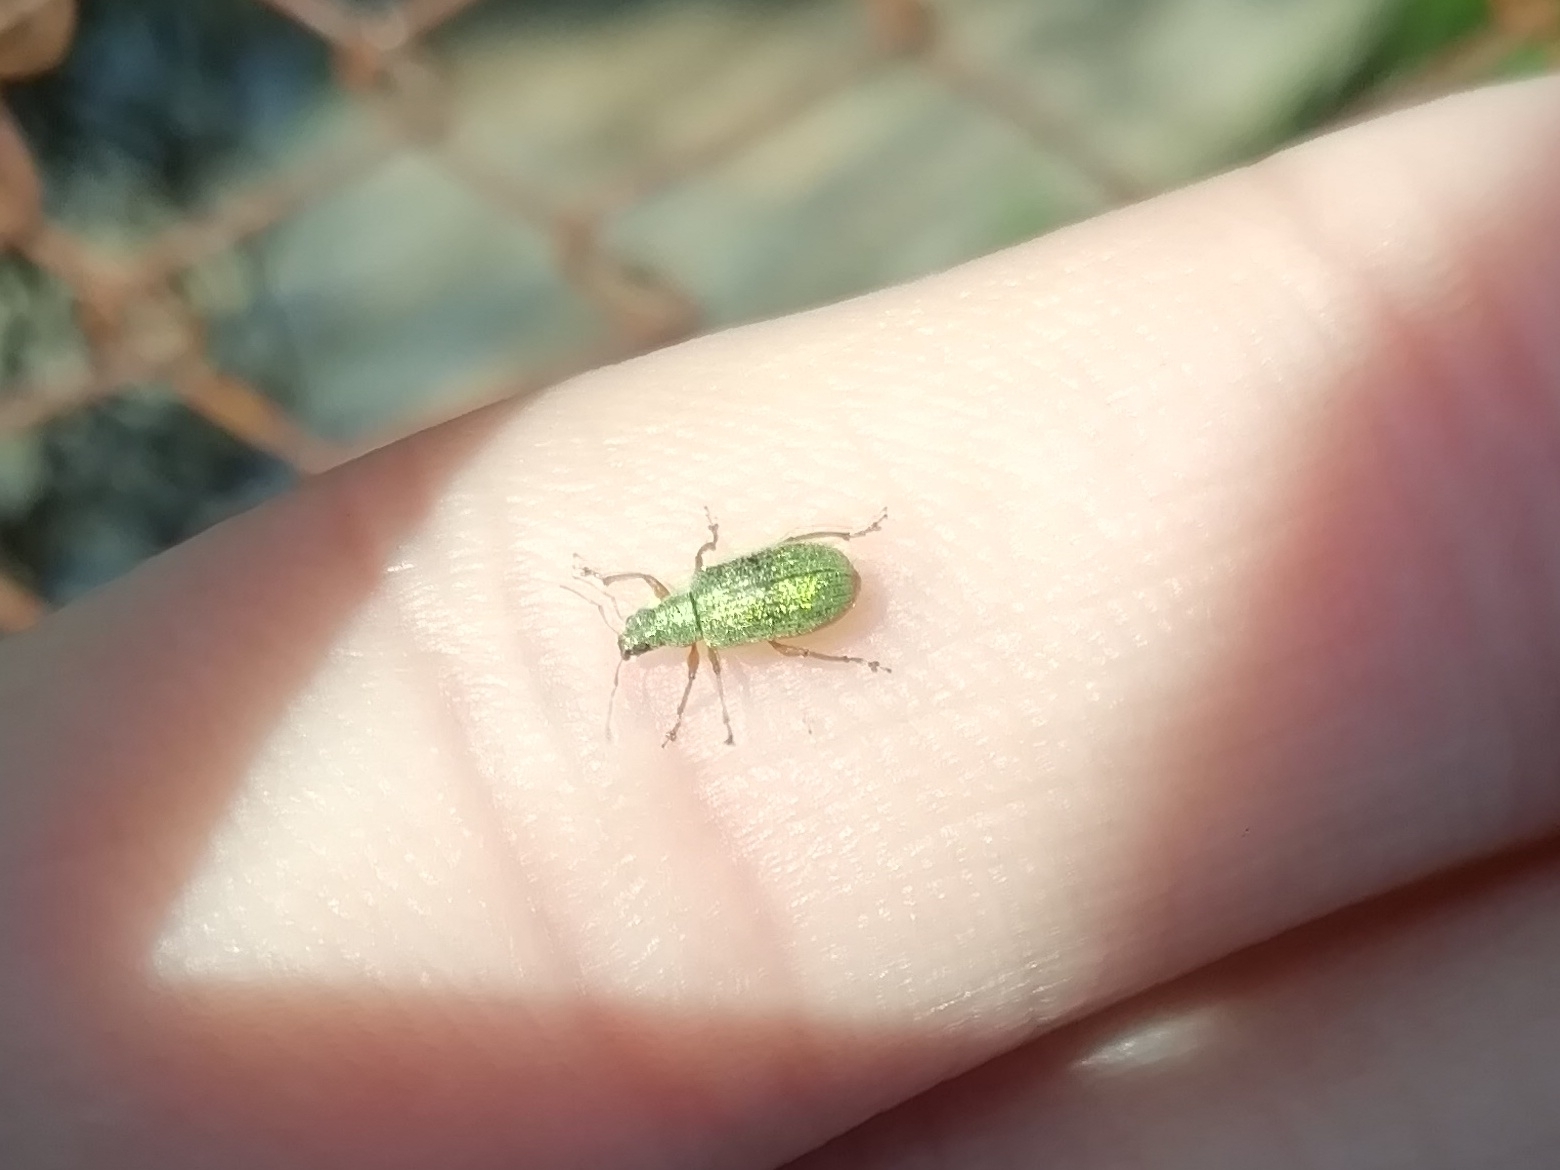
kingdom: Animalia
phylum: Arthropoda
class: Insecta
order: Coleoptera
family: Curculionidae
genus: Polydrusus
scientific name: Polydrusus pterygomalis
